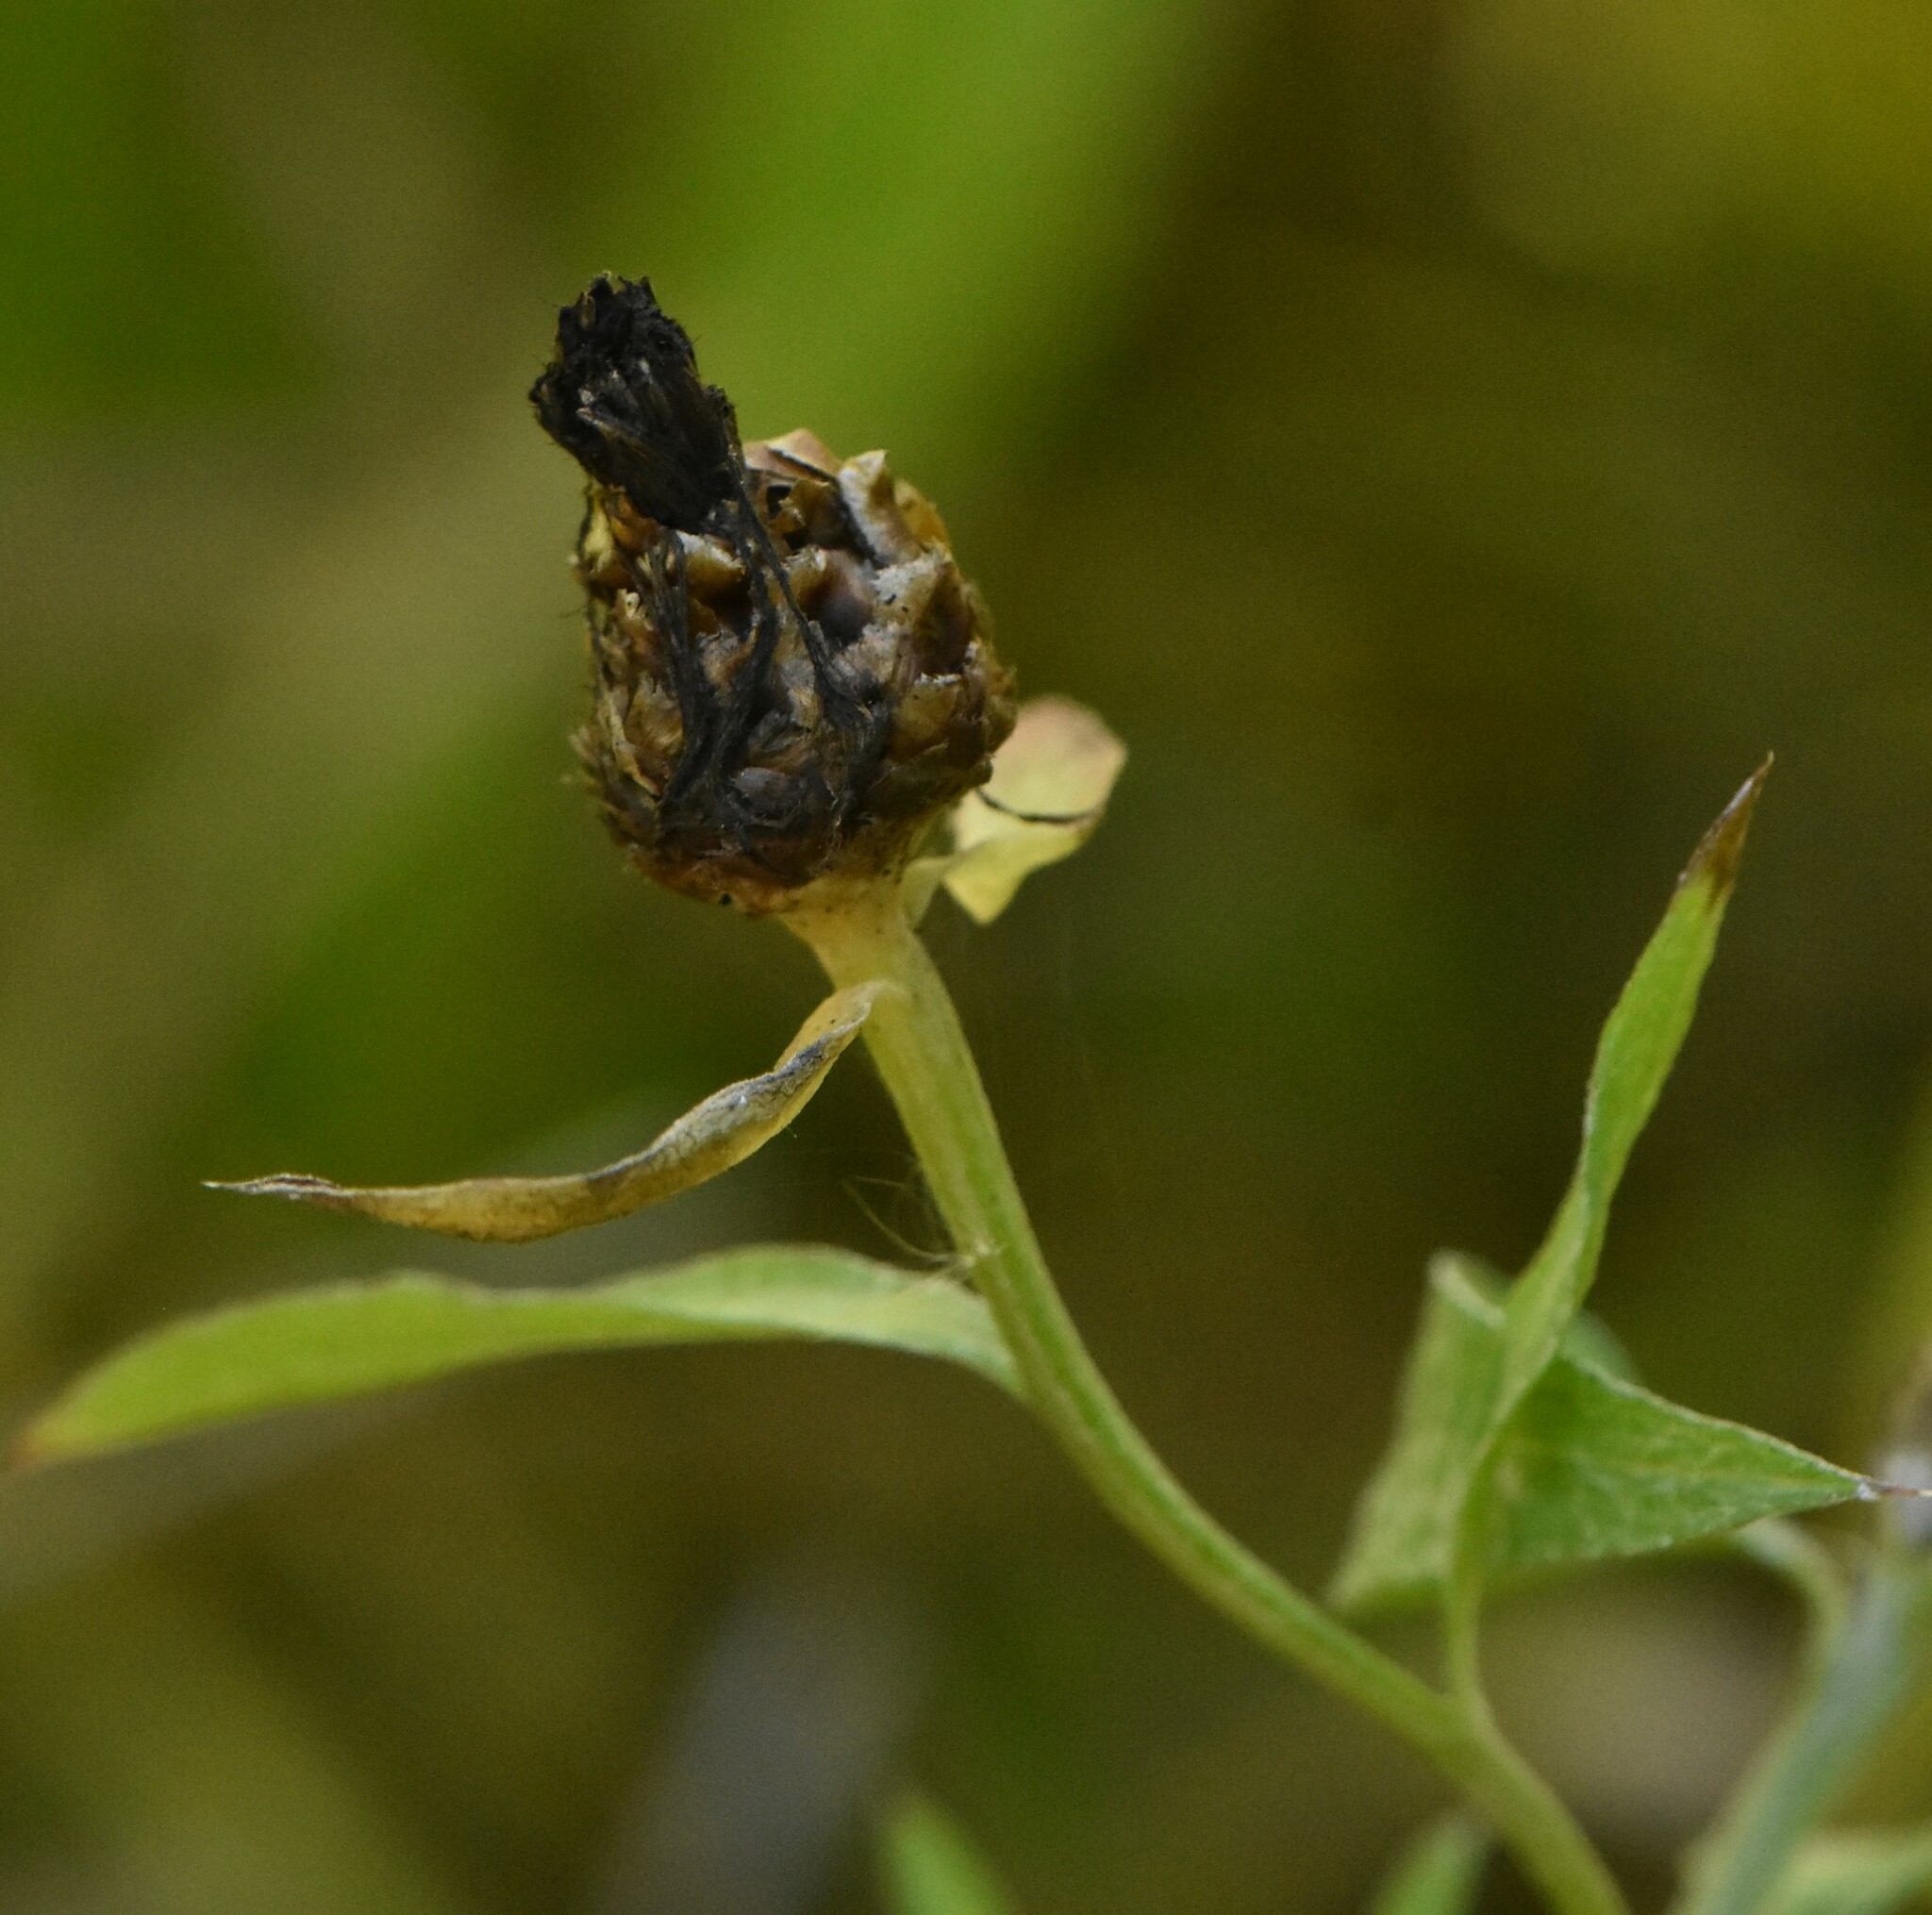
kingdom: Plantae
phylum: Tracheophyta
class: Magnoliopsida
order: Asterales
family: Asteraceae
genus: Centaurea
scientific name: Centaurea jacea
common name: Brown knapweed
